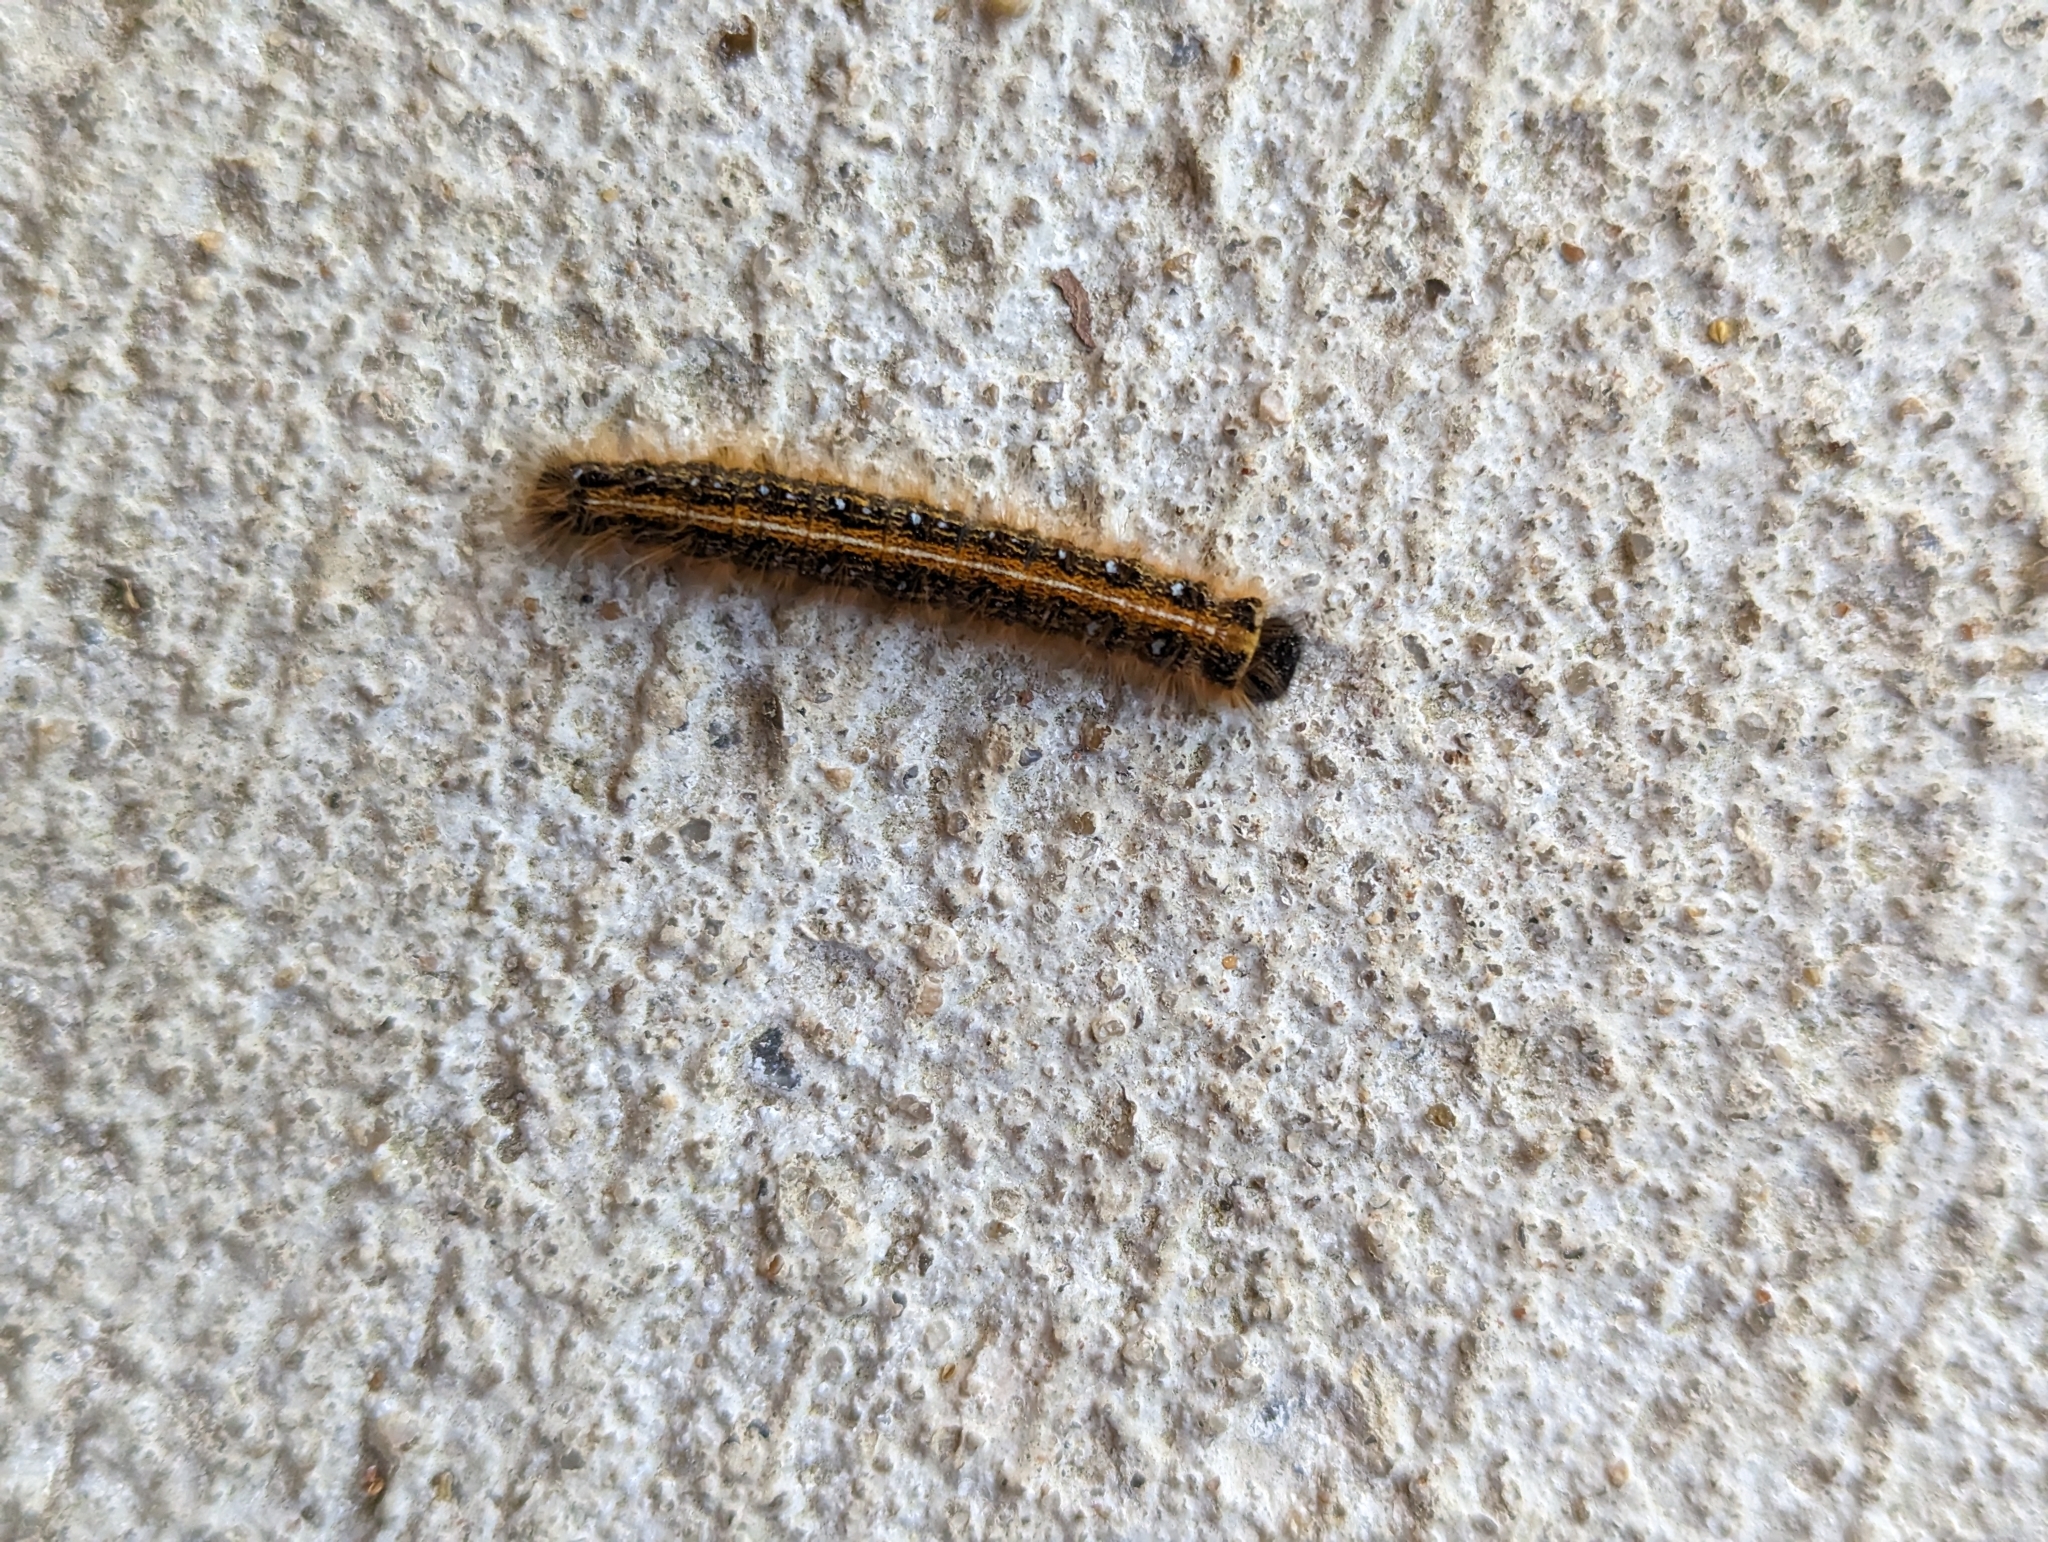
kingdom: Animalia
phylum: Arthropoda
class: Insecta
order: Lepidoptera
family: Lasiocampidae
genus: Malacosoma
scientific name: Malacosoma americana
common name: Eastern tent caterpillar moth
